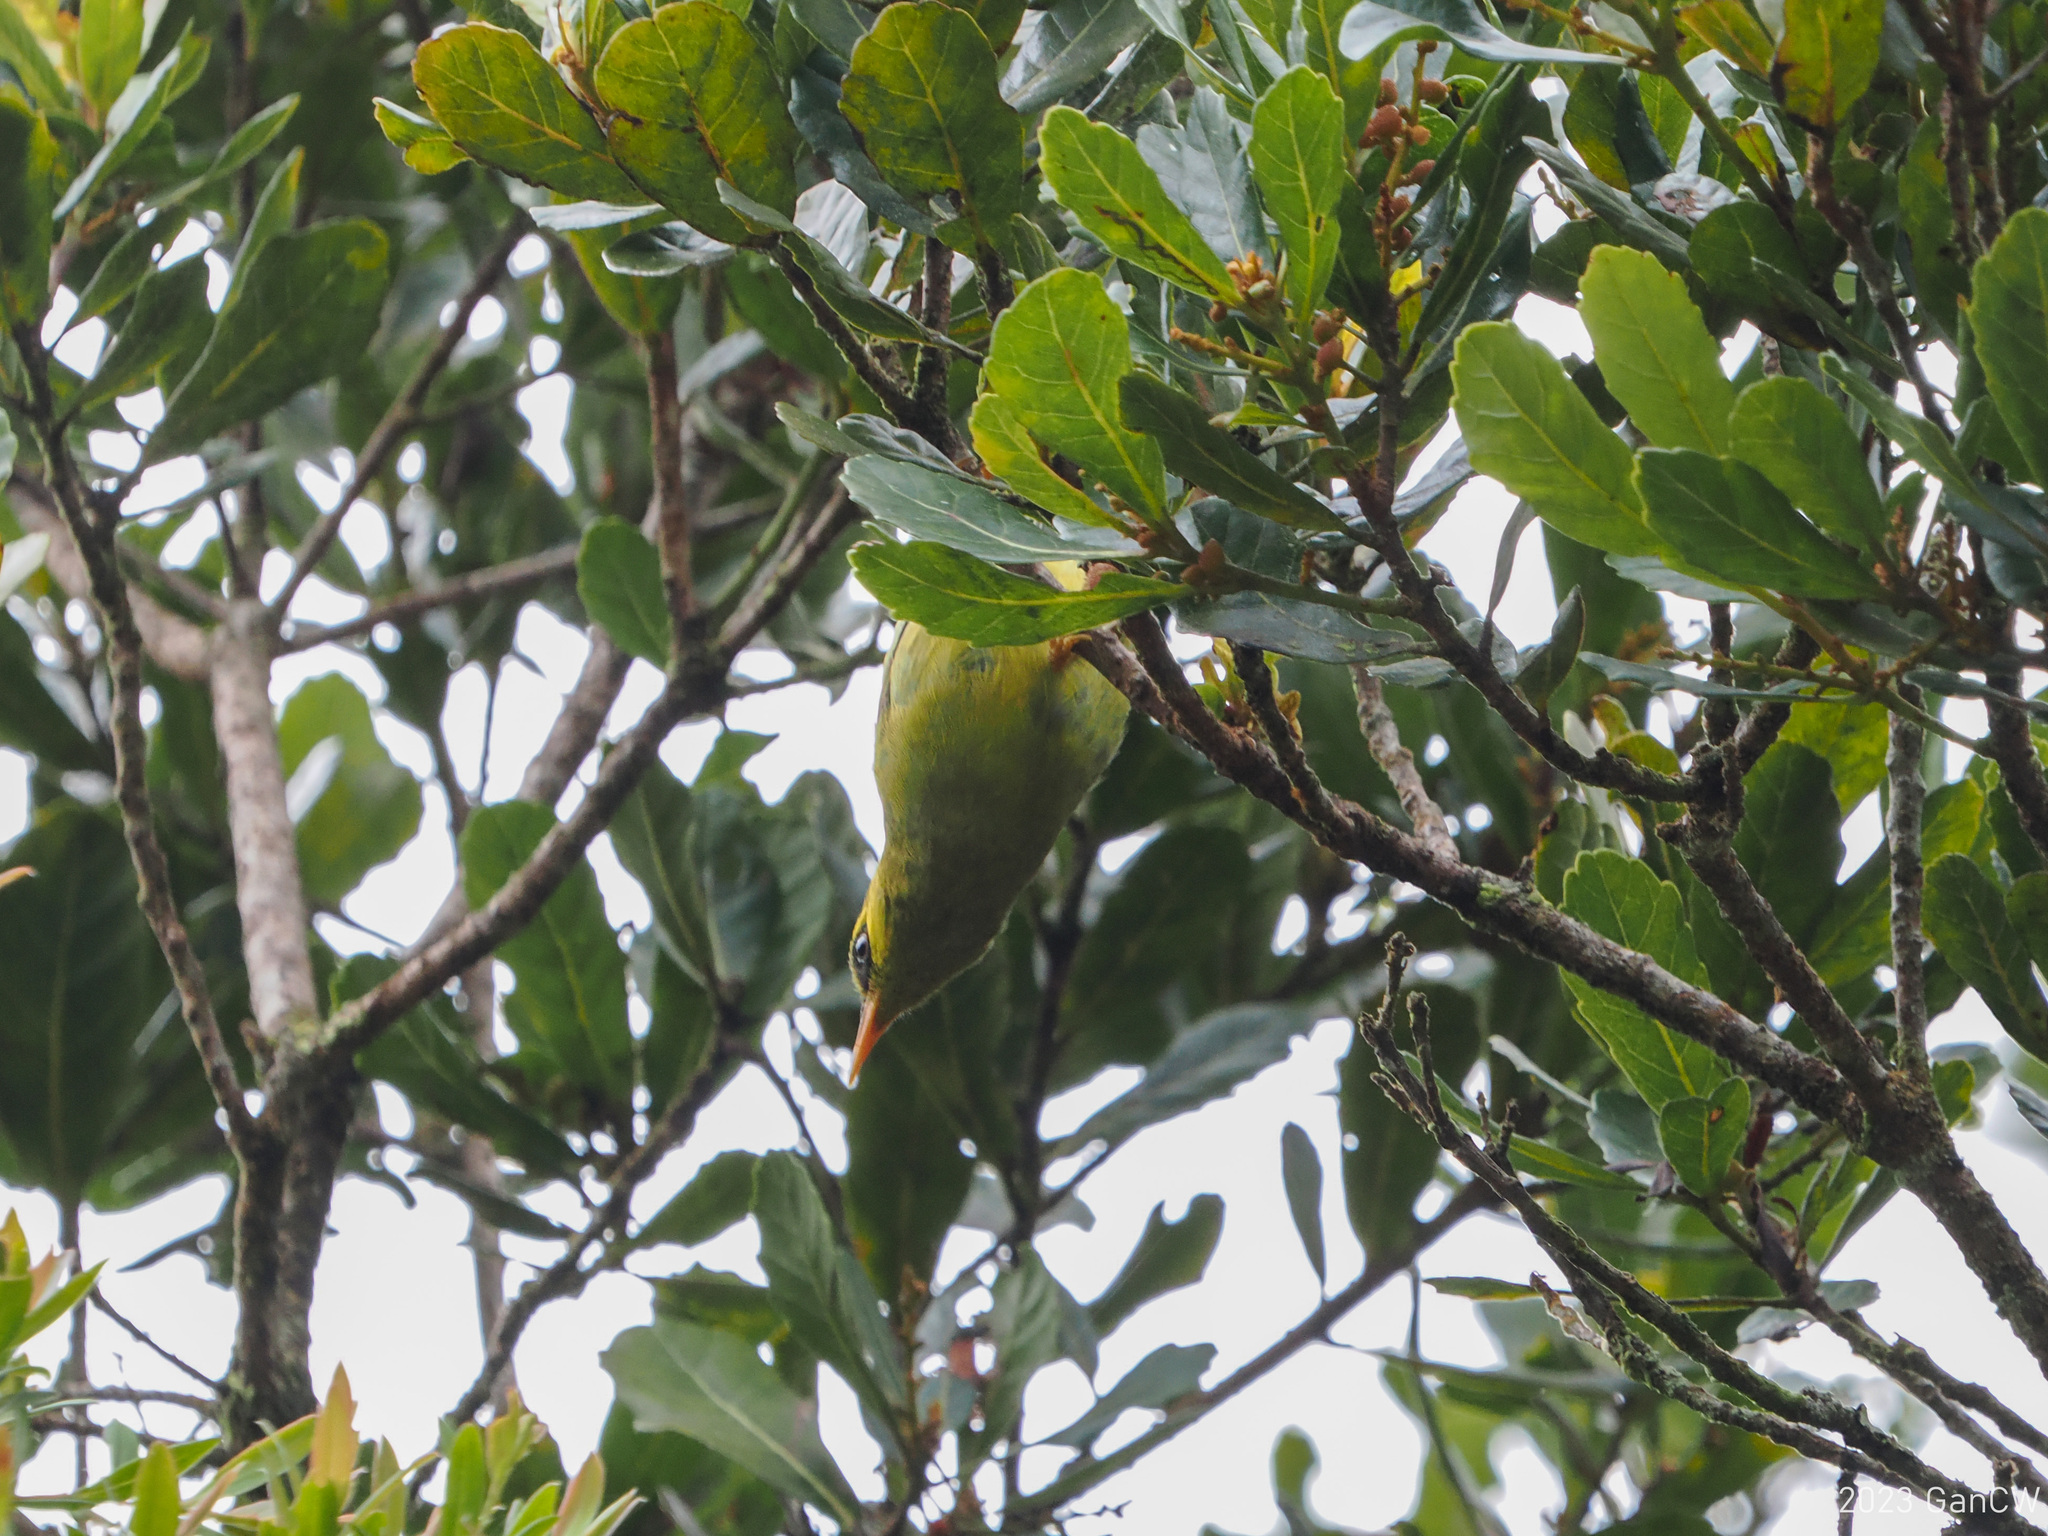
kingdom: Animalia
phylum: Chordata
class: Aves
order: Passeriformes
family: Zosteropidae
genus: Chlorocharis
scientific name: Chlorocharis emiliae
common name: Mountain blackeye
